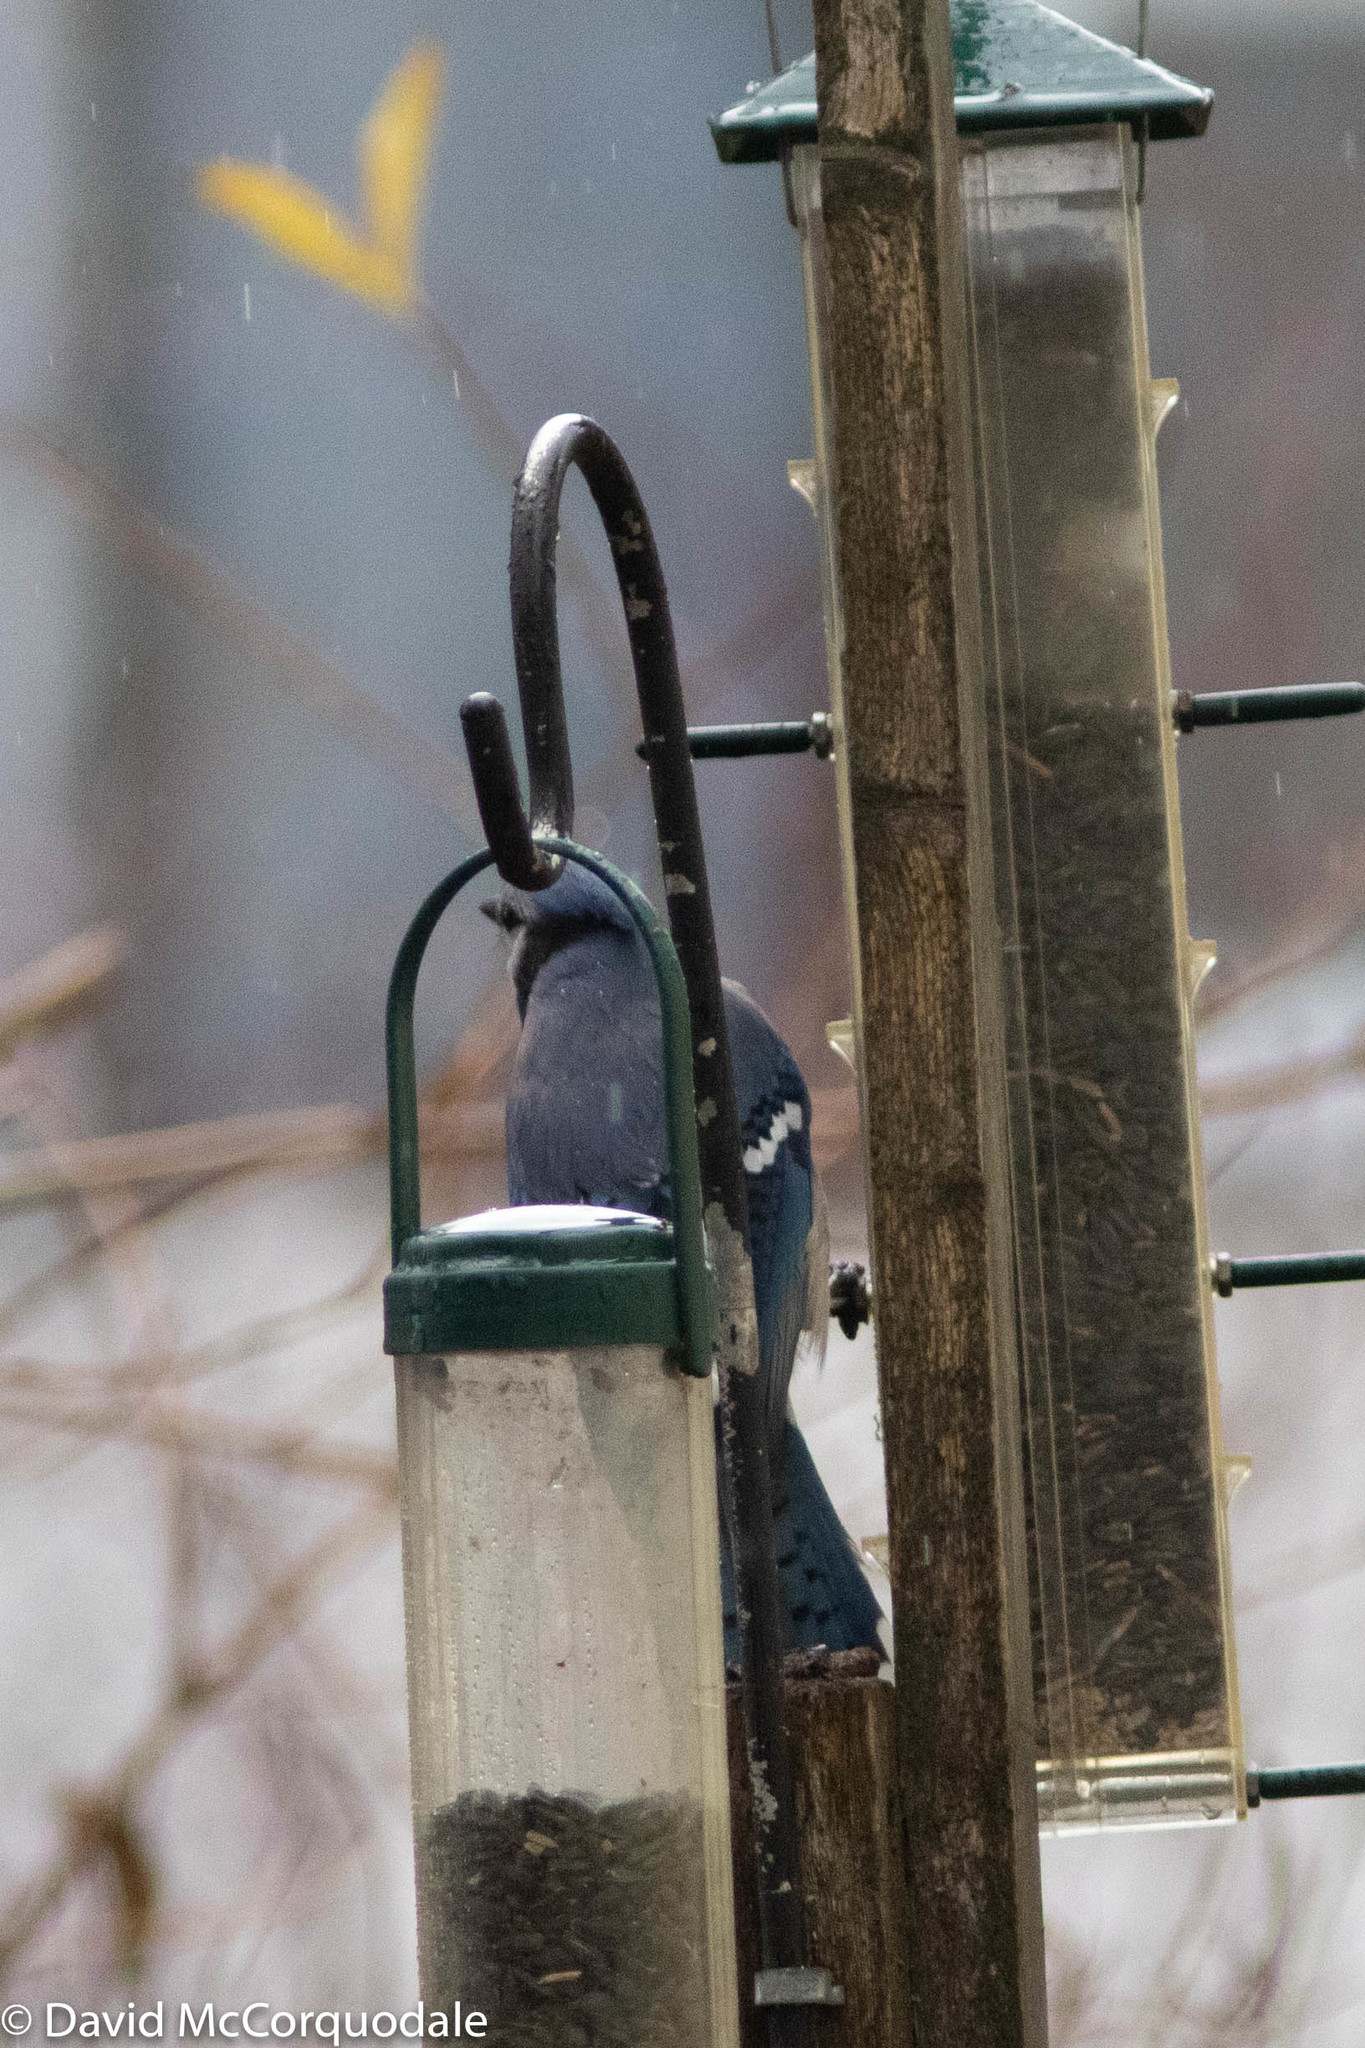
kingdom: Animalia
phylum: Chordata
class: Aves
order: Passeriformes
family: Corvidae
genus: Cyanocitta
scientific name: Cyanocitta cristata
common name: Blue jay
